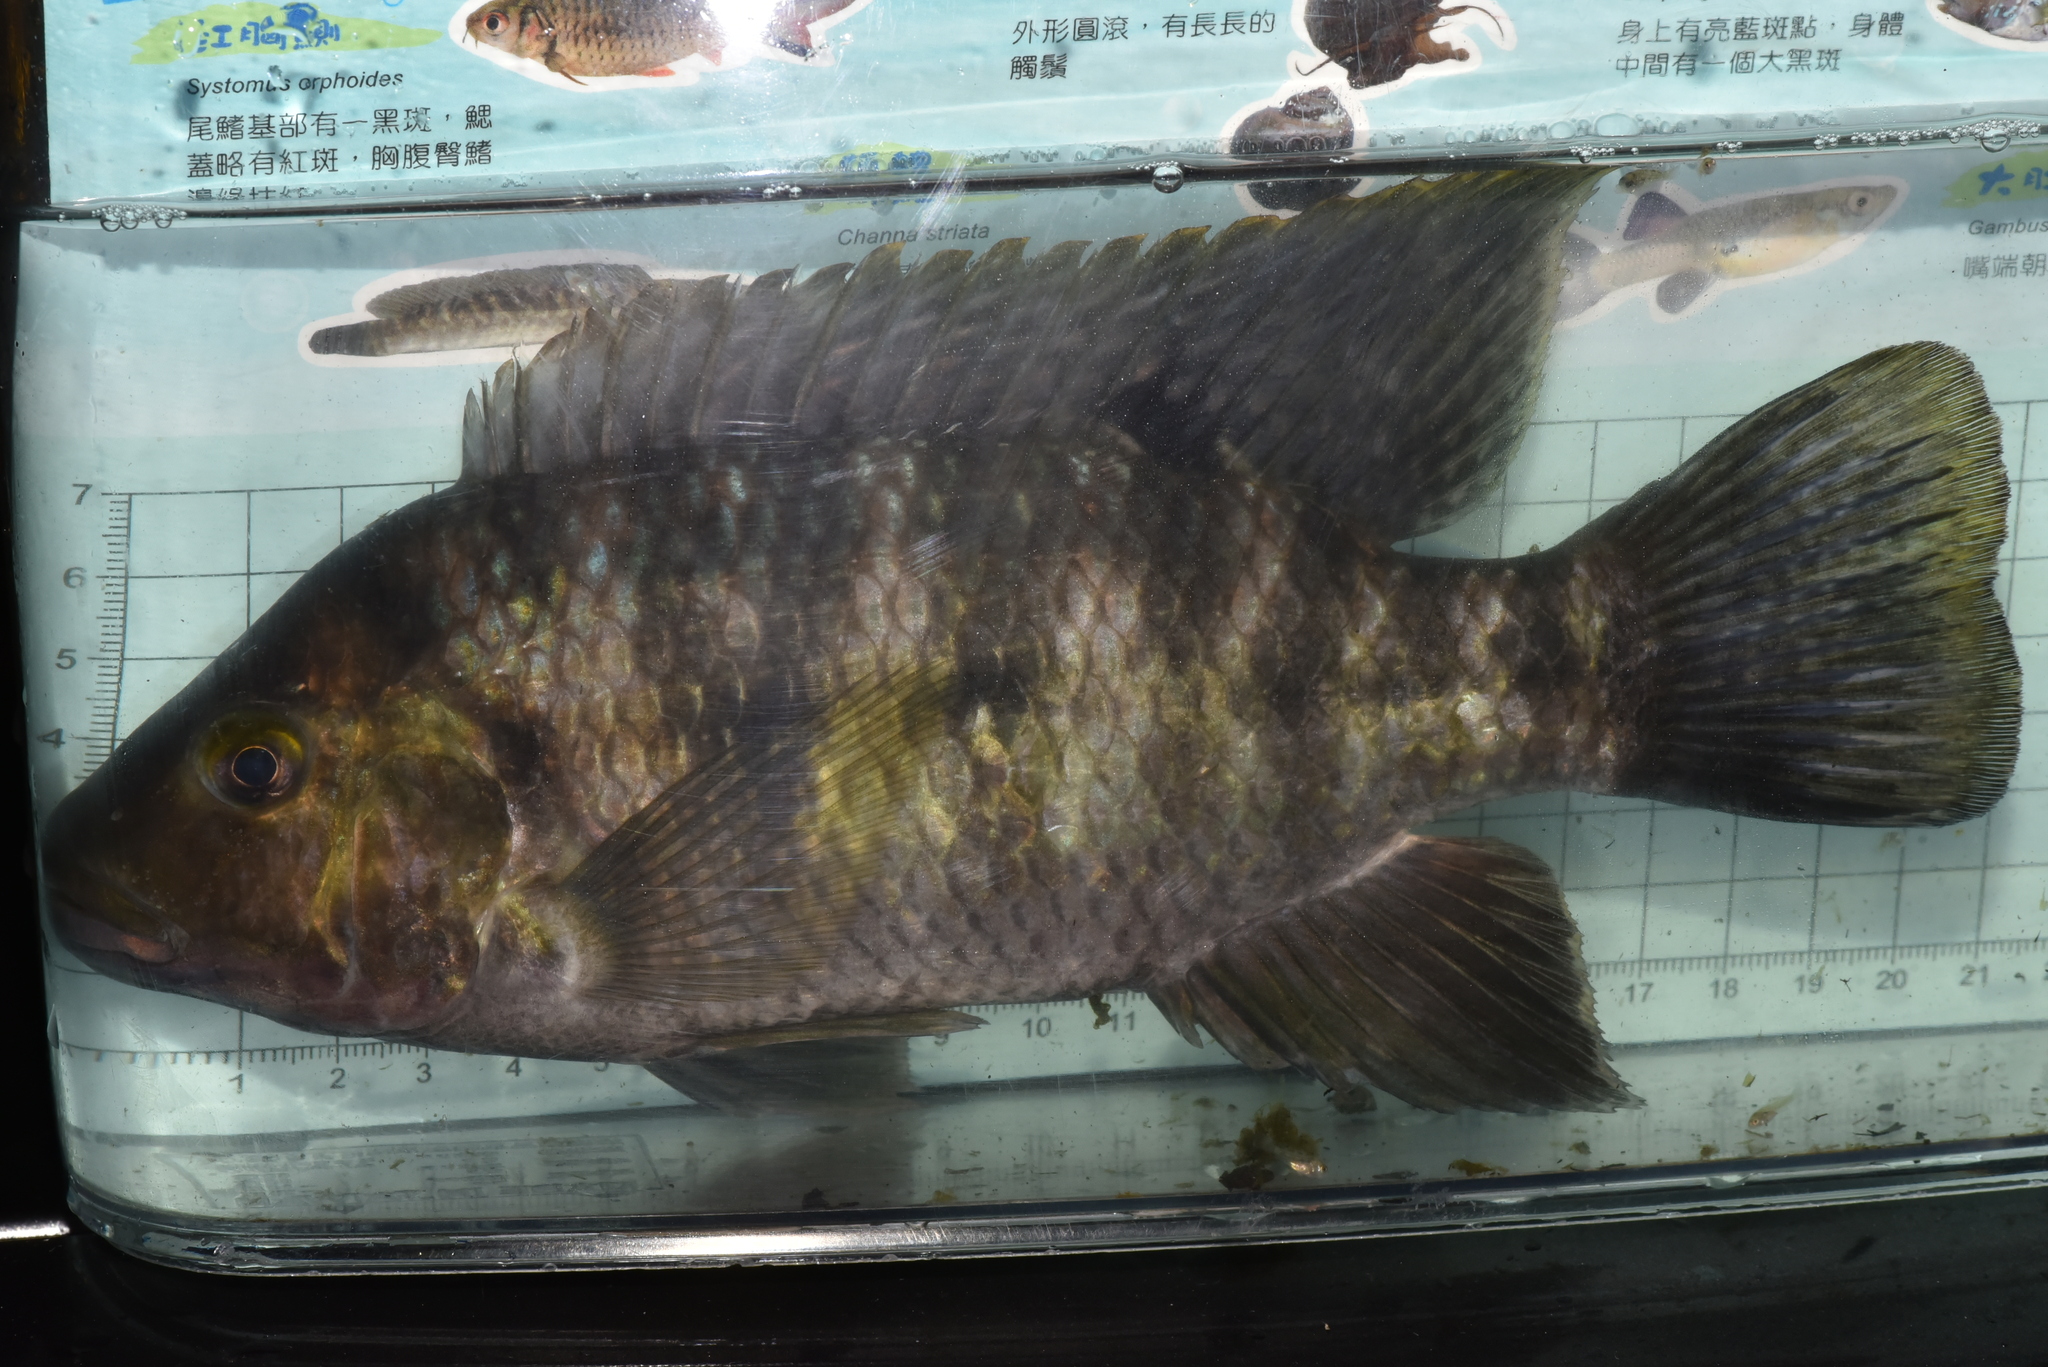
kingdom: Animalia
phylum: Chordata
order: Perciformes
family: Cichlidae
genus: Coptodon
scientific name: Coptodon zillii
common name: Redbelly tilapia
